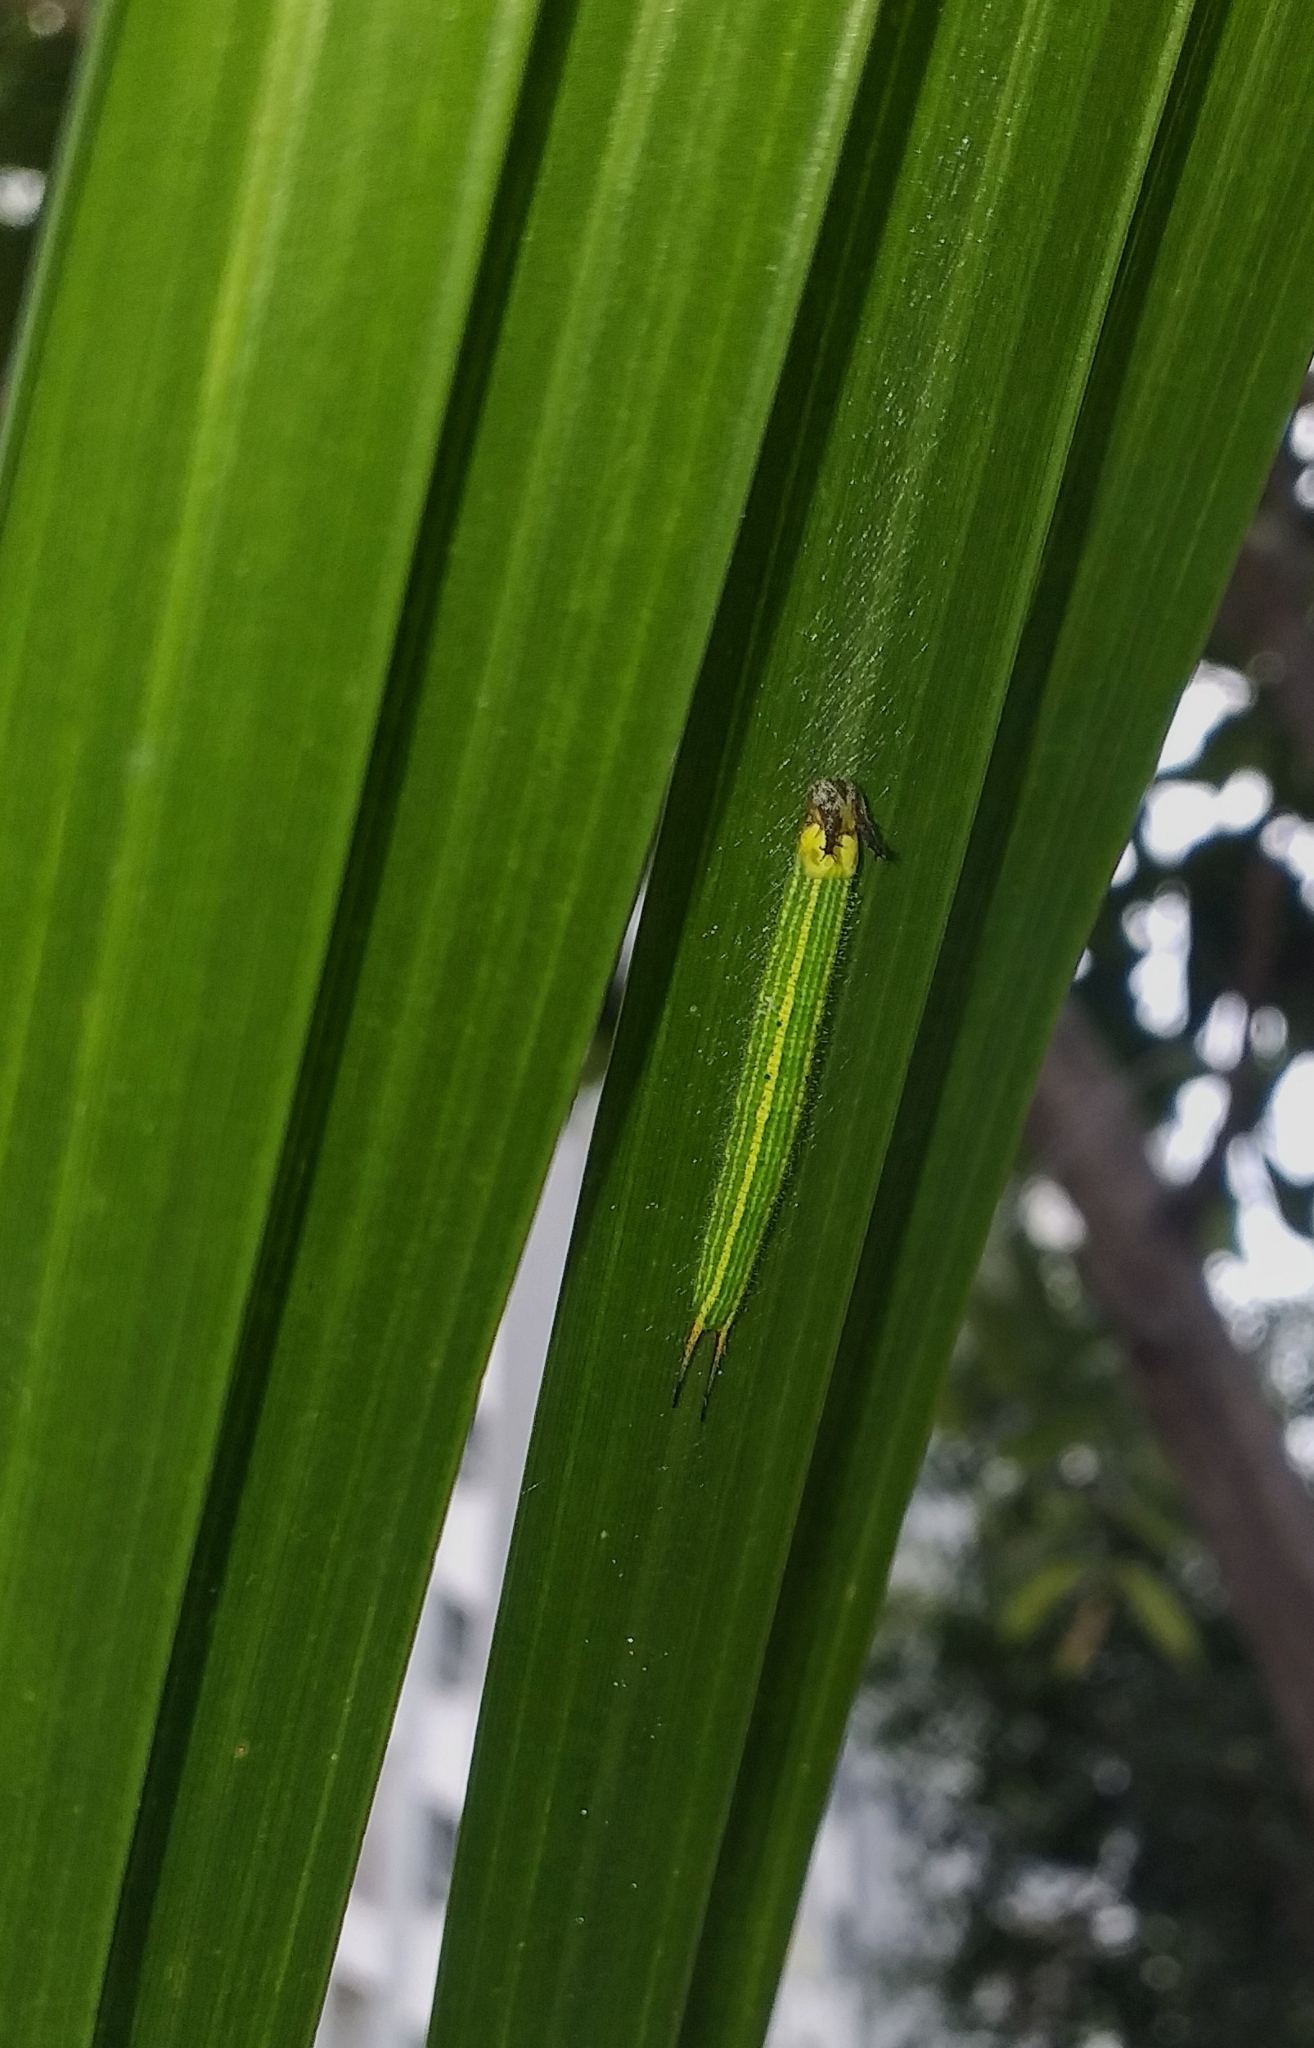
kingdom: Animalia
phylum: Arthropoda
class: Insecta
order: Lepidoptera
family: Nymphalidae
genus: Elymnias
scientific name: Elymnias caudata
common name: Tailed palmfly
